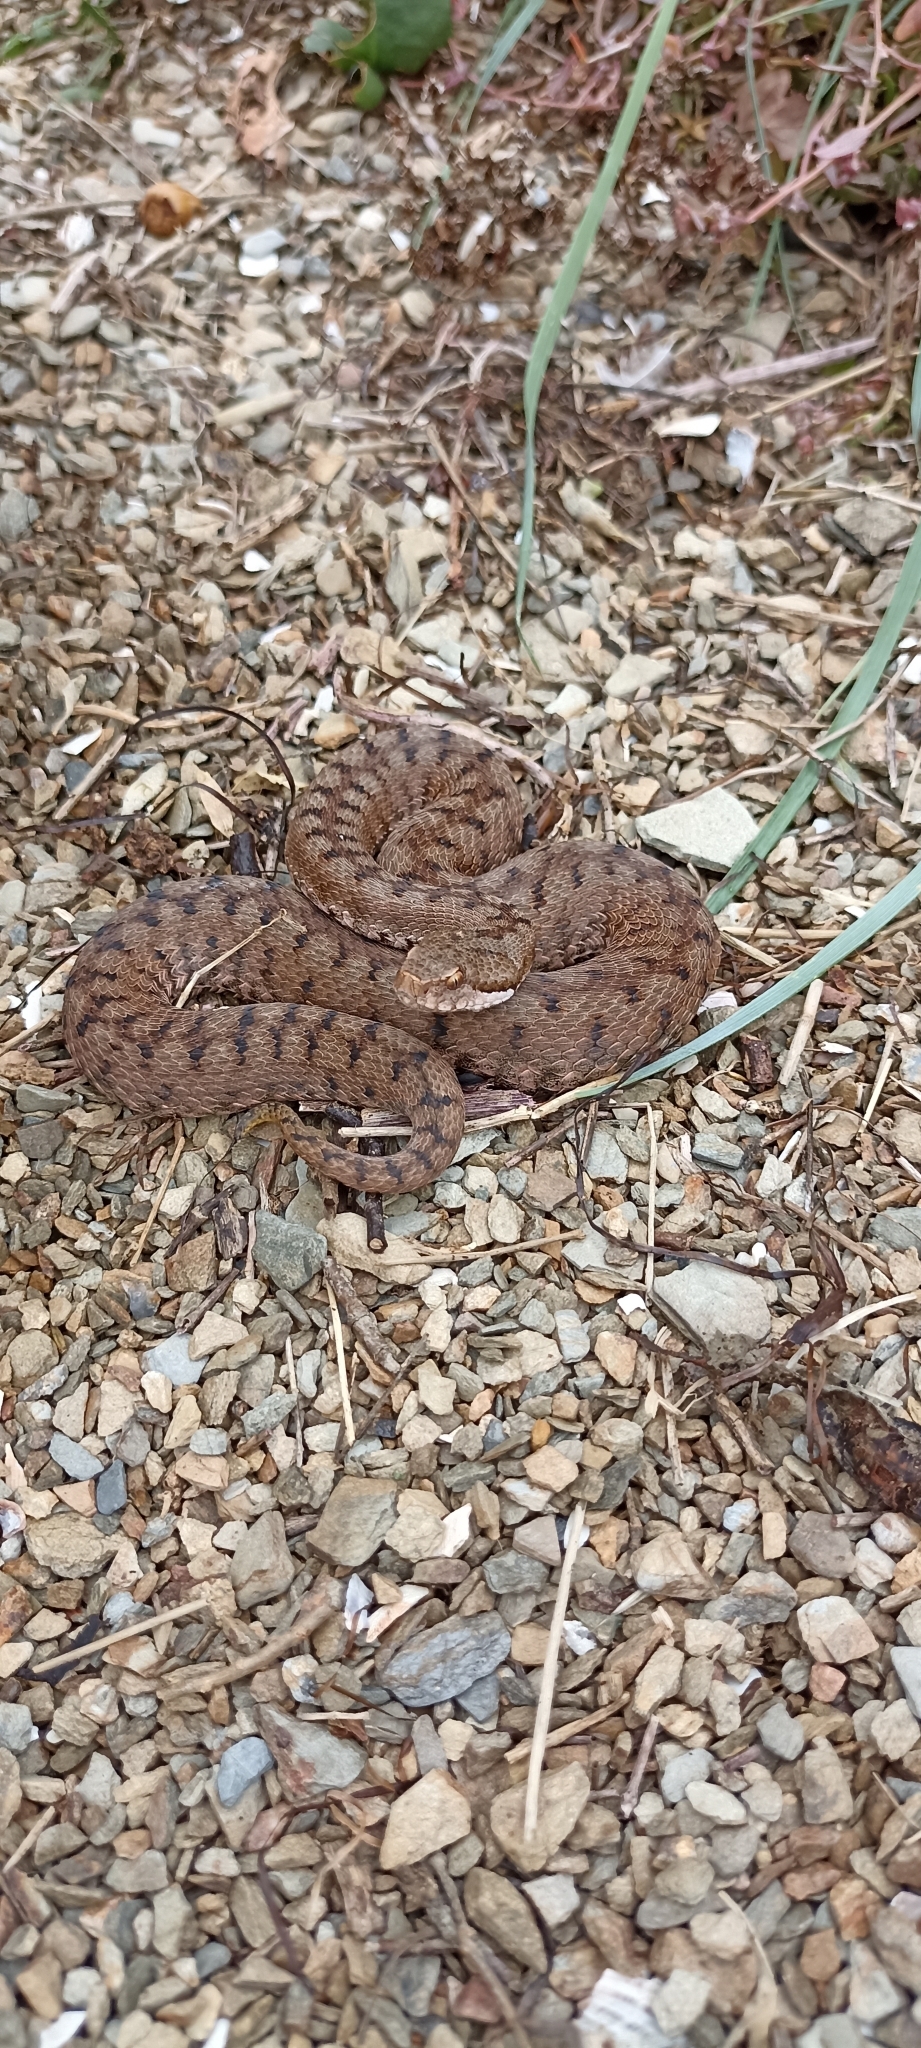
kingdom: Animalia
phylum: Chordata
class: Squamata
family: Viperidae
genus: Vipera
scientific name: Vipera aspis
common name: Asp viper
